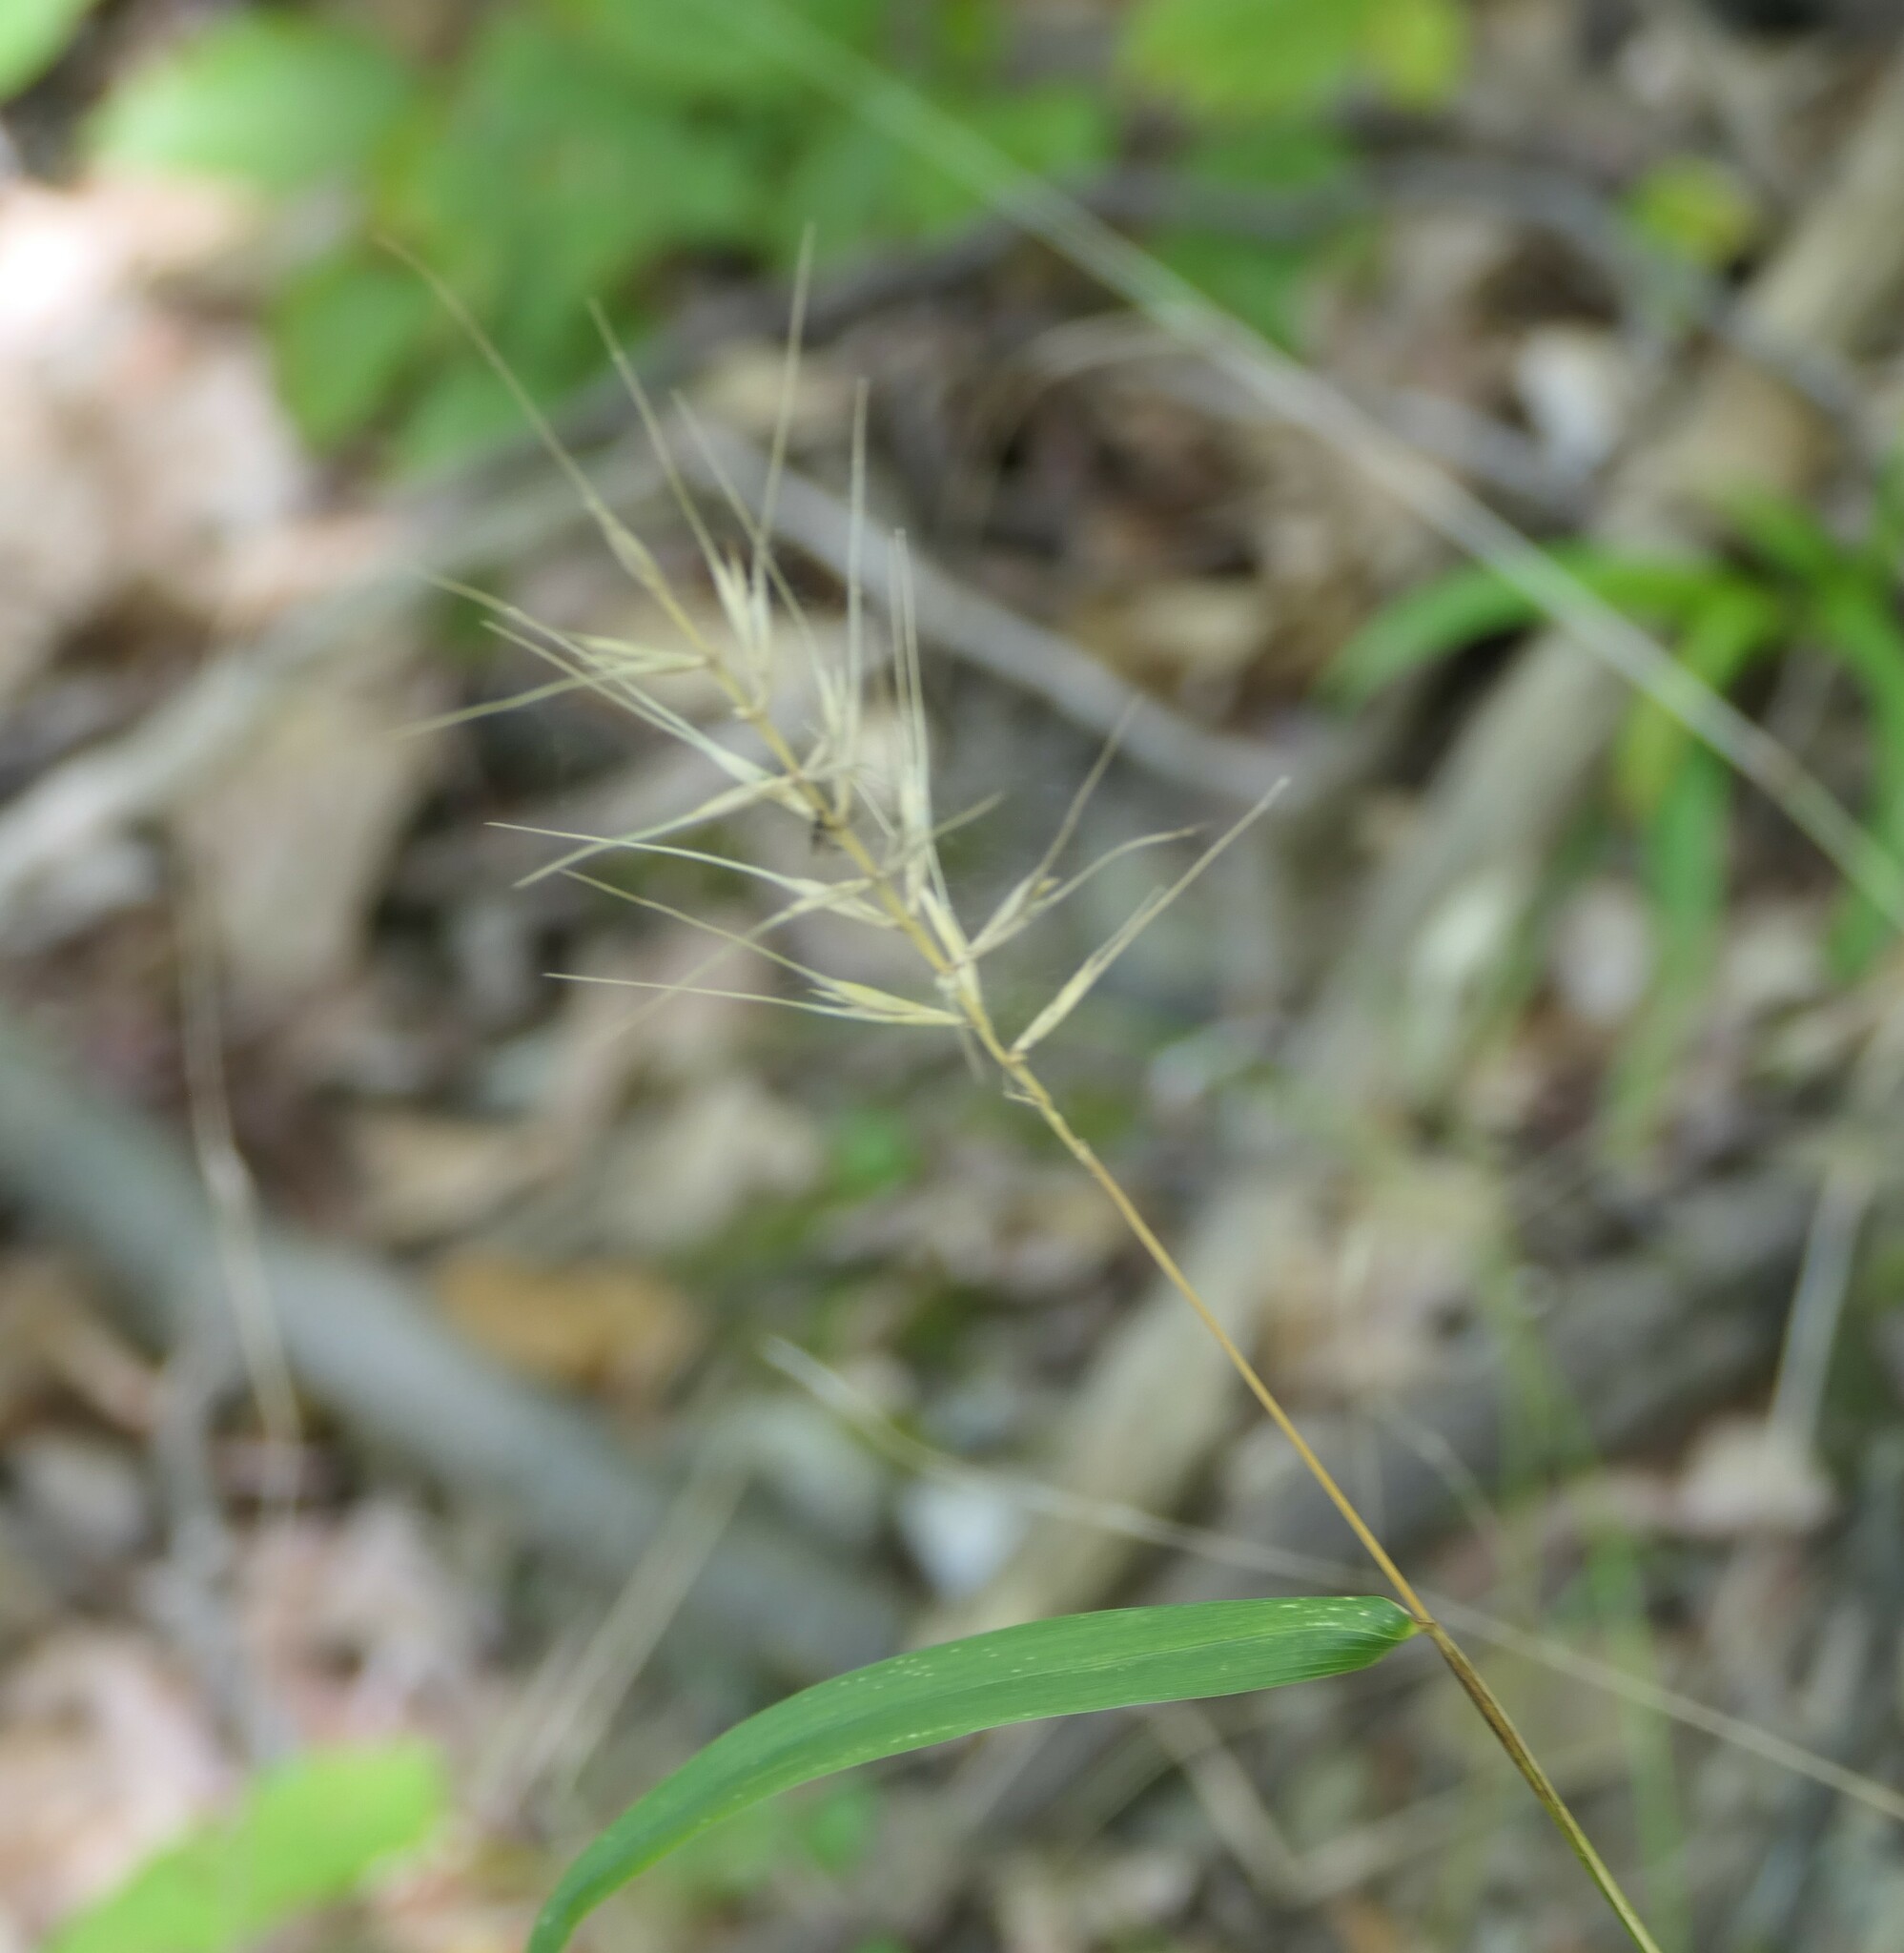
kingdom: Plantae
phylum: Tracheophyta
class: Liliopsida
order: Poales
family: Poaceae
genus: Elymus
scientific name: Elymus hystrix
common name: Bottlebrush grass
